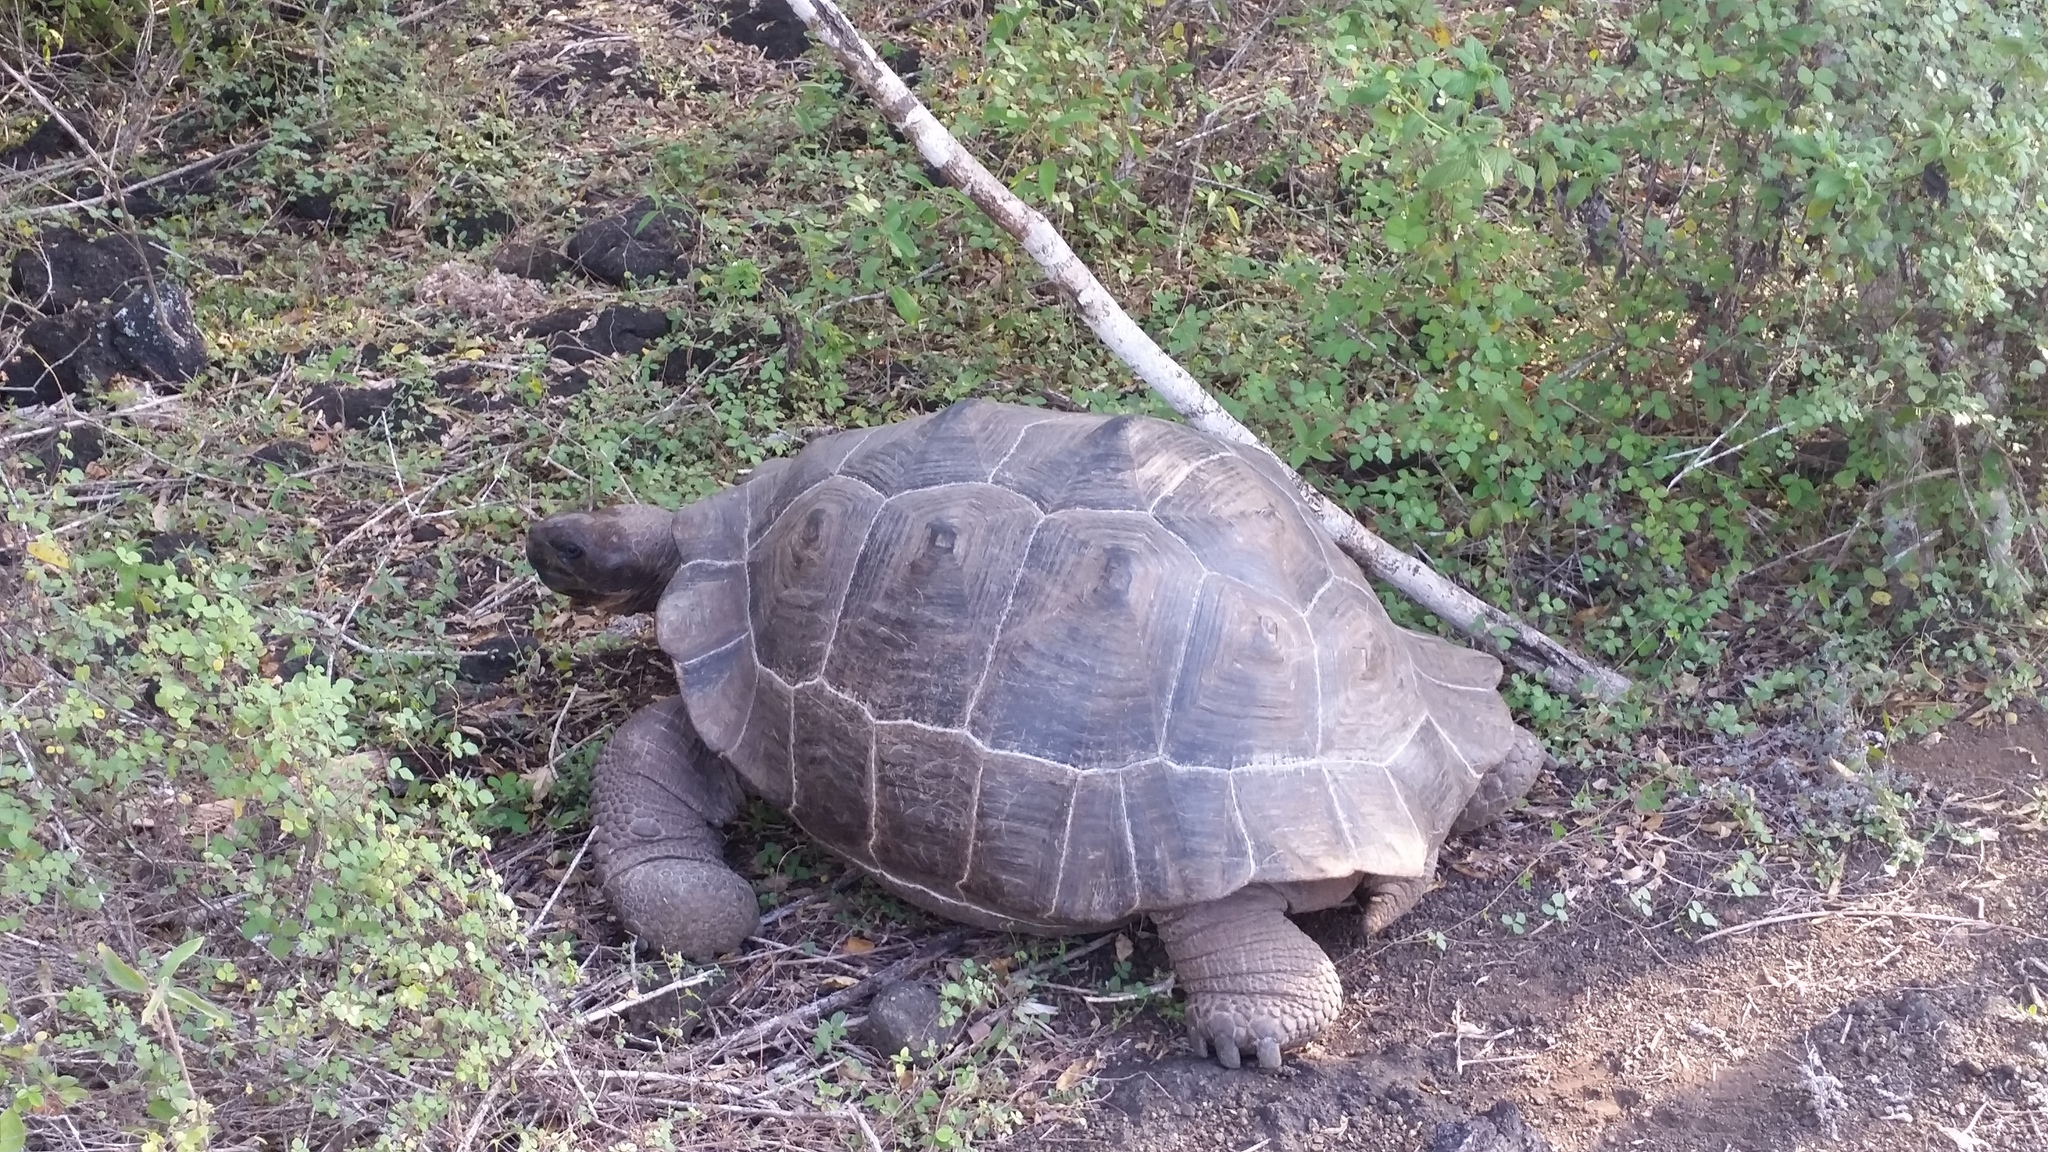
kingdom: Animalia
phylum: Chordata
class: Testudines
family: Testudinidae
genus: Chelonoidis
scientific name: Chelonoidis guntheri
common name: Sierra negra giant tortoise
